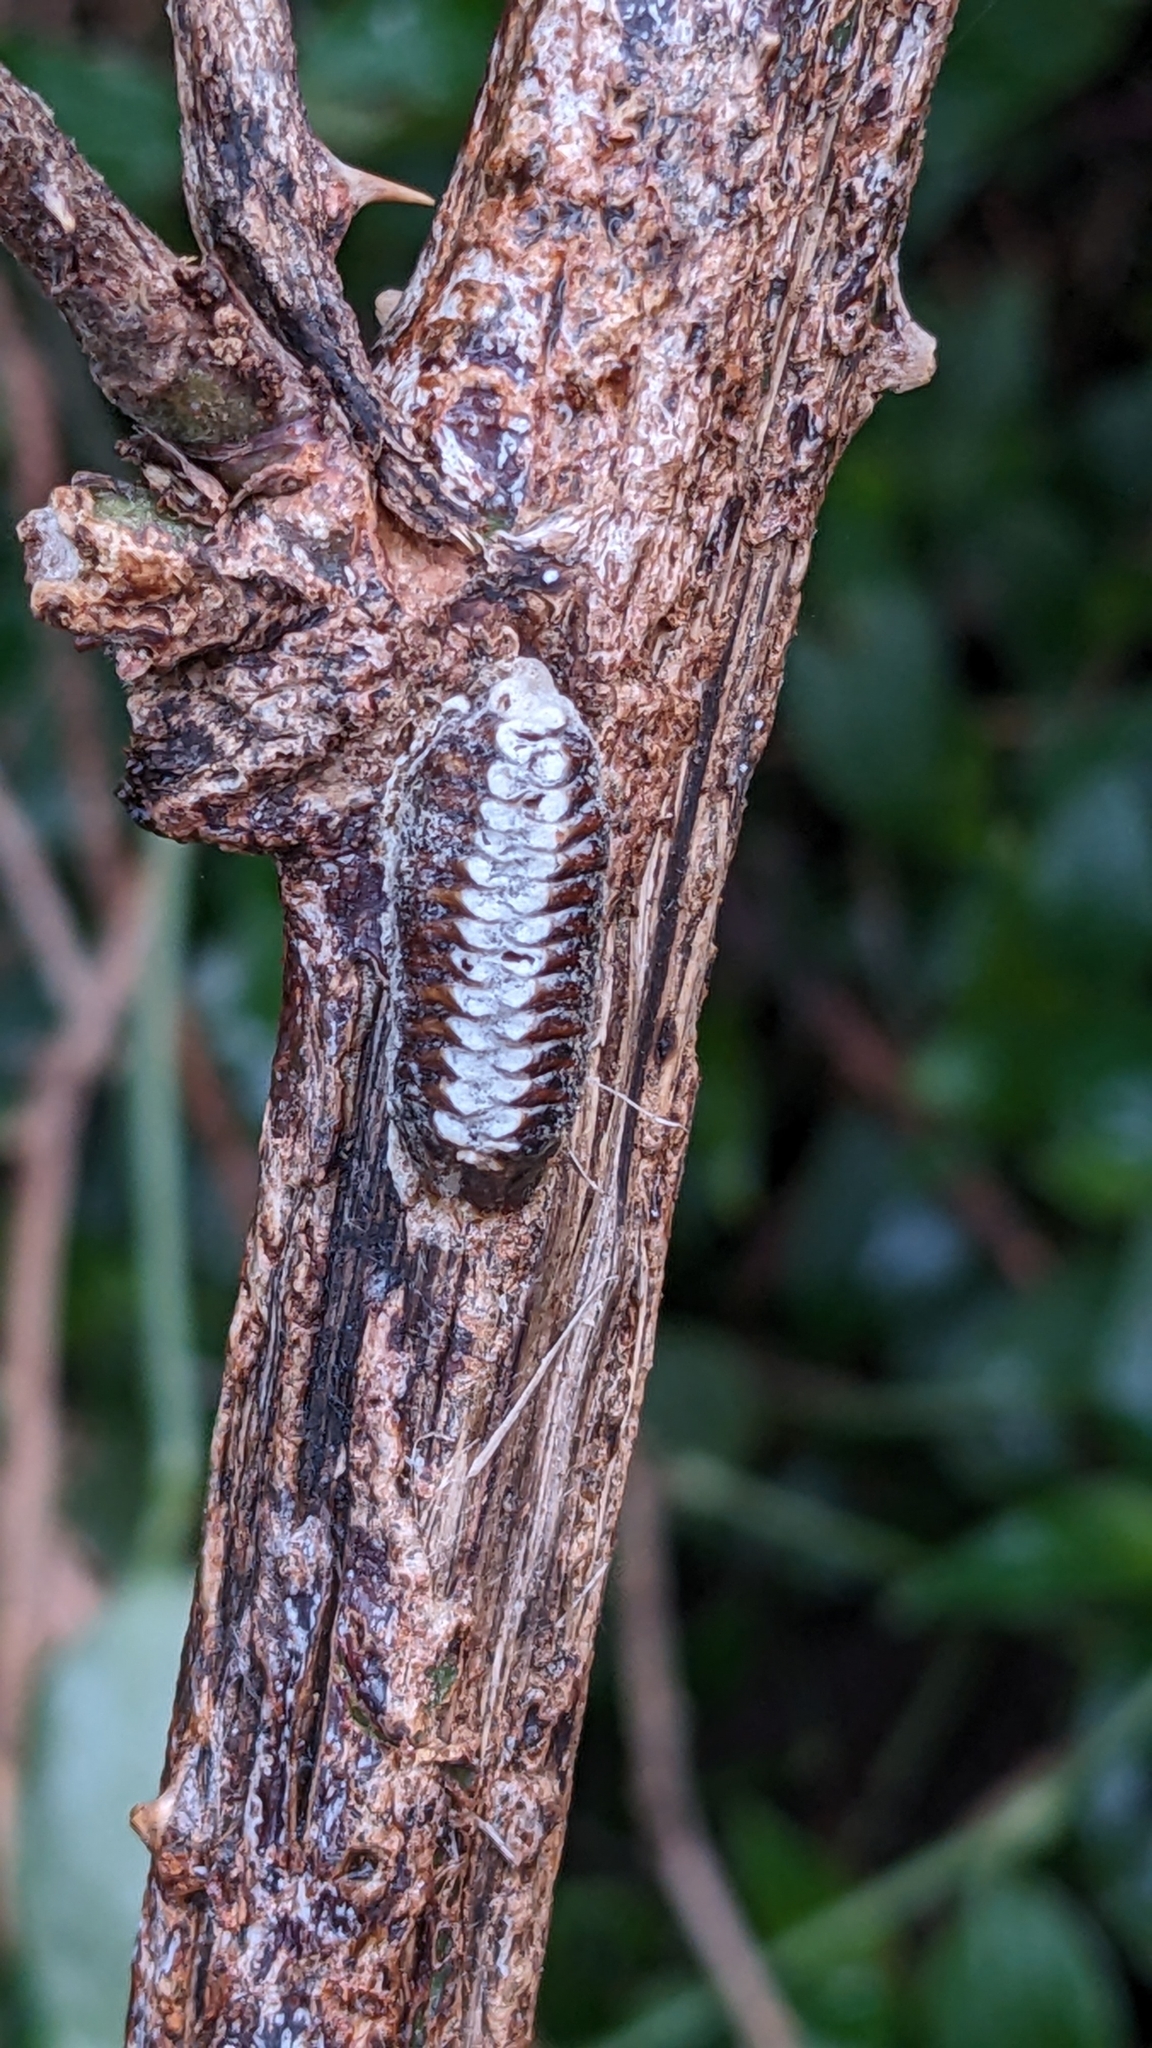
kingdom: Animalia
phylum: Arthropoda
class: Insecta
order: Mantodea
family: Mantidae
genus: Orthodera
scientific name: Orthodera novaezealandiae
